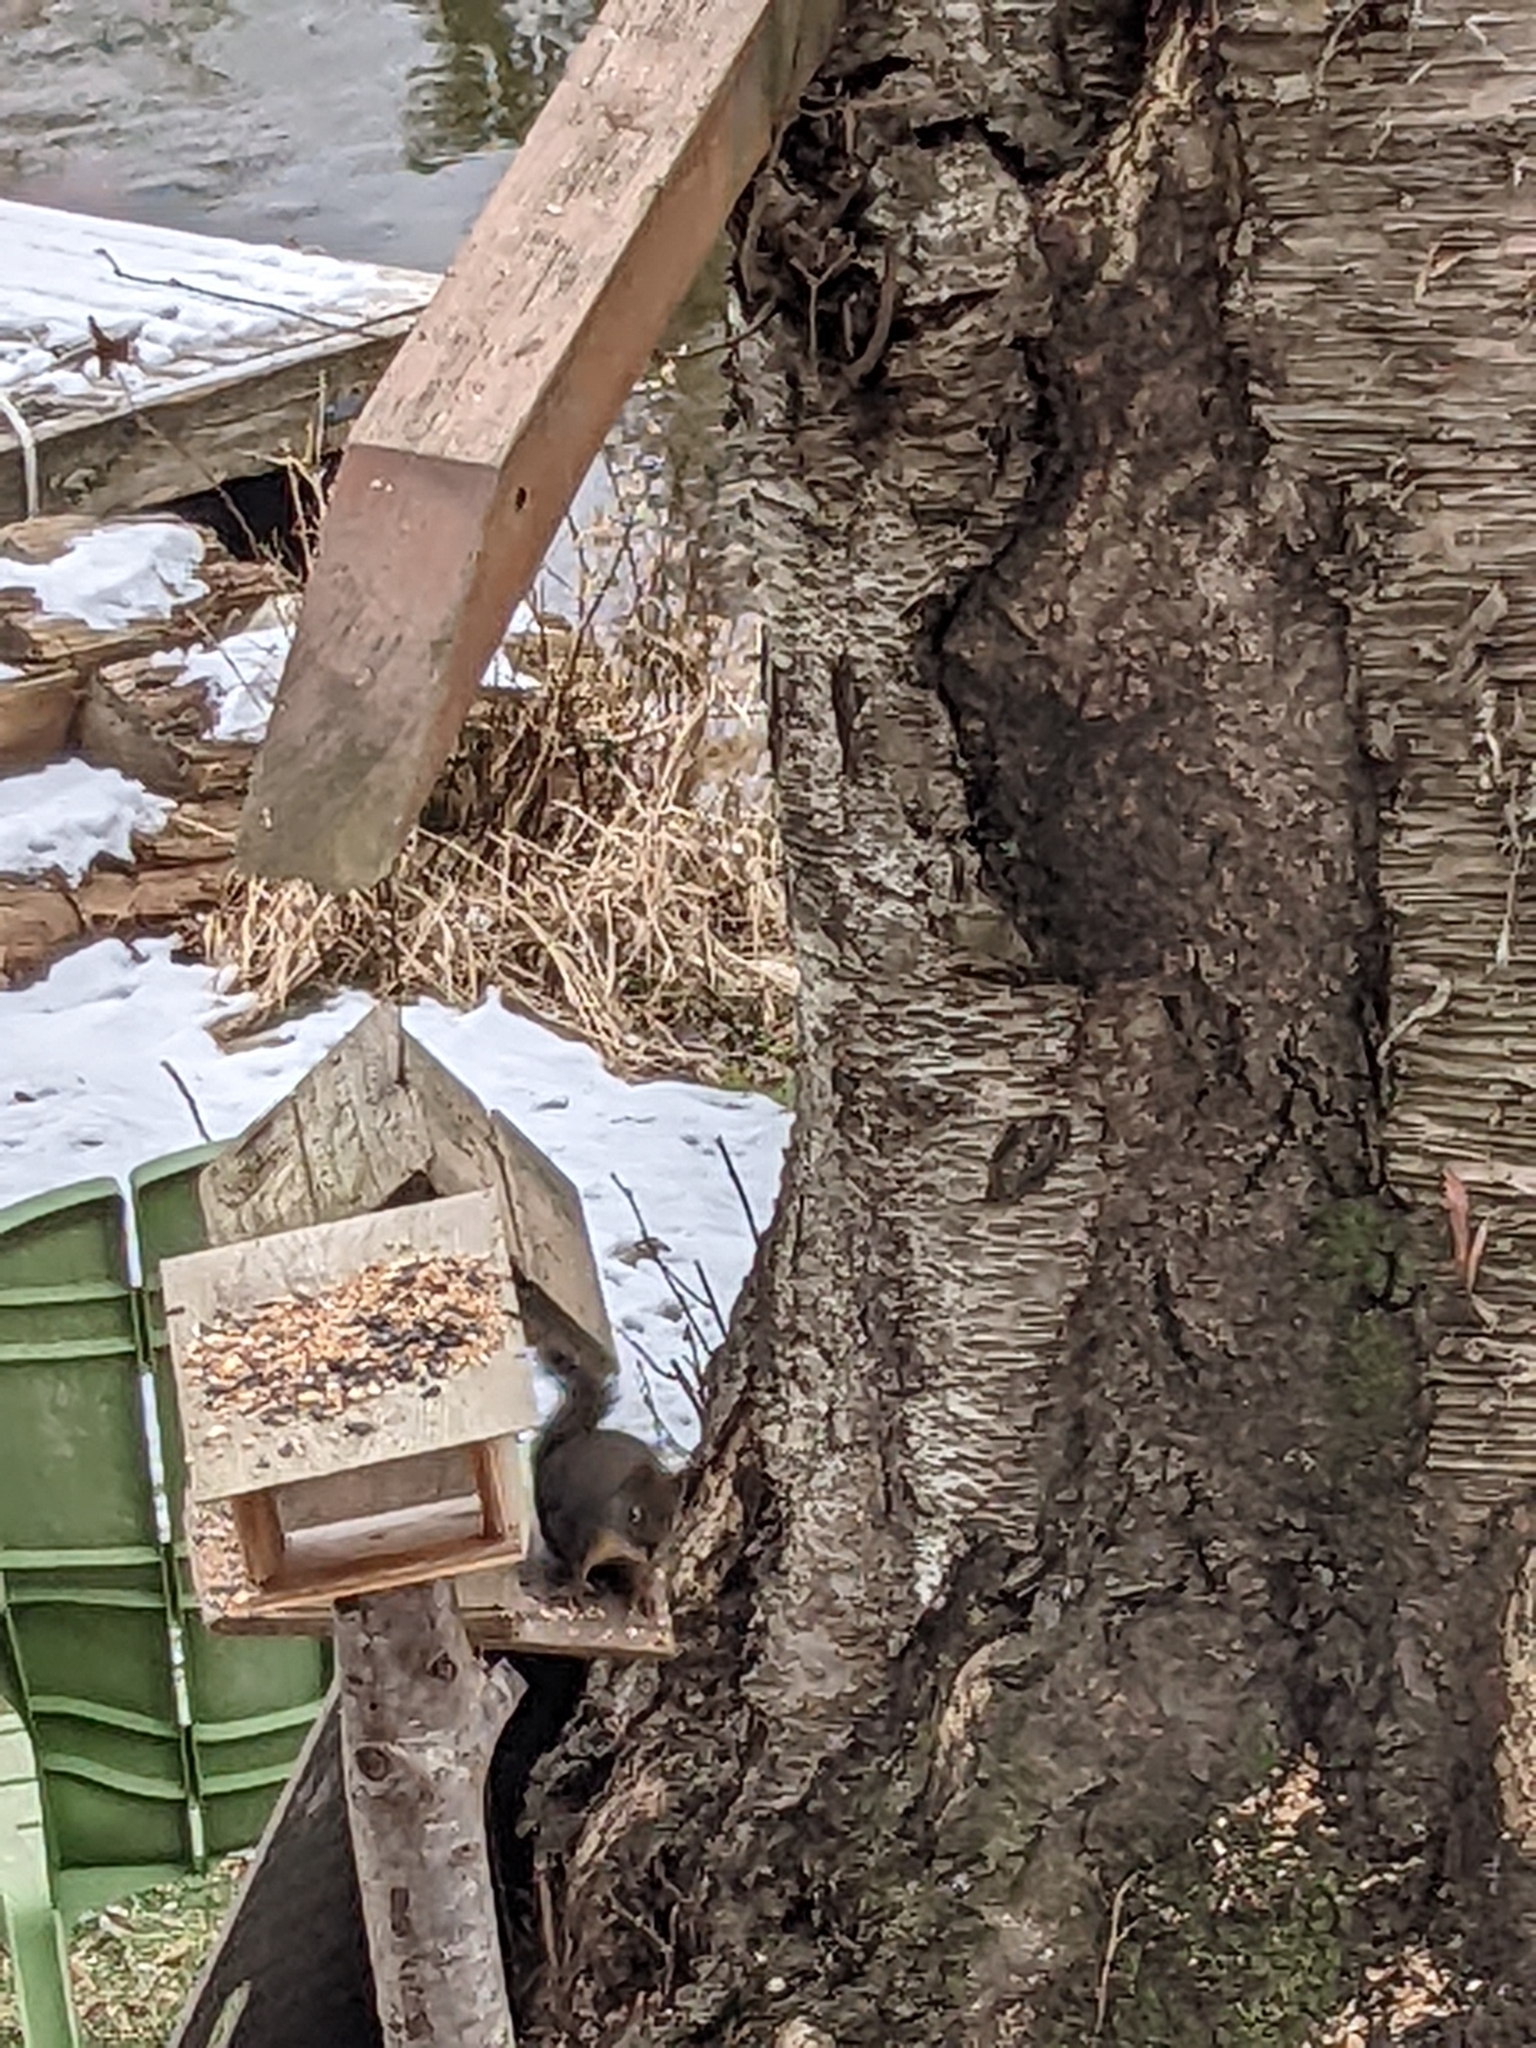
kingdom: Animalia
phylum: Chordata
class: Mammalia
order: Rodentia
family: Sciuridae
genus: Tamiasciurus
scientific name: Tamiasciurus douglasii
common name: Douglas's squirrel
